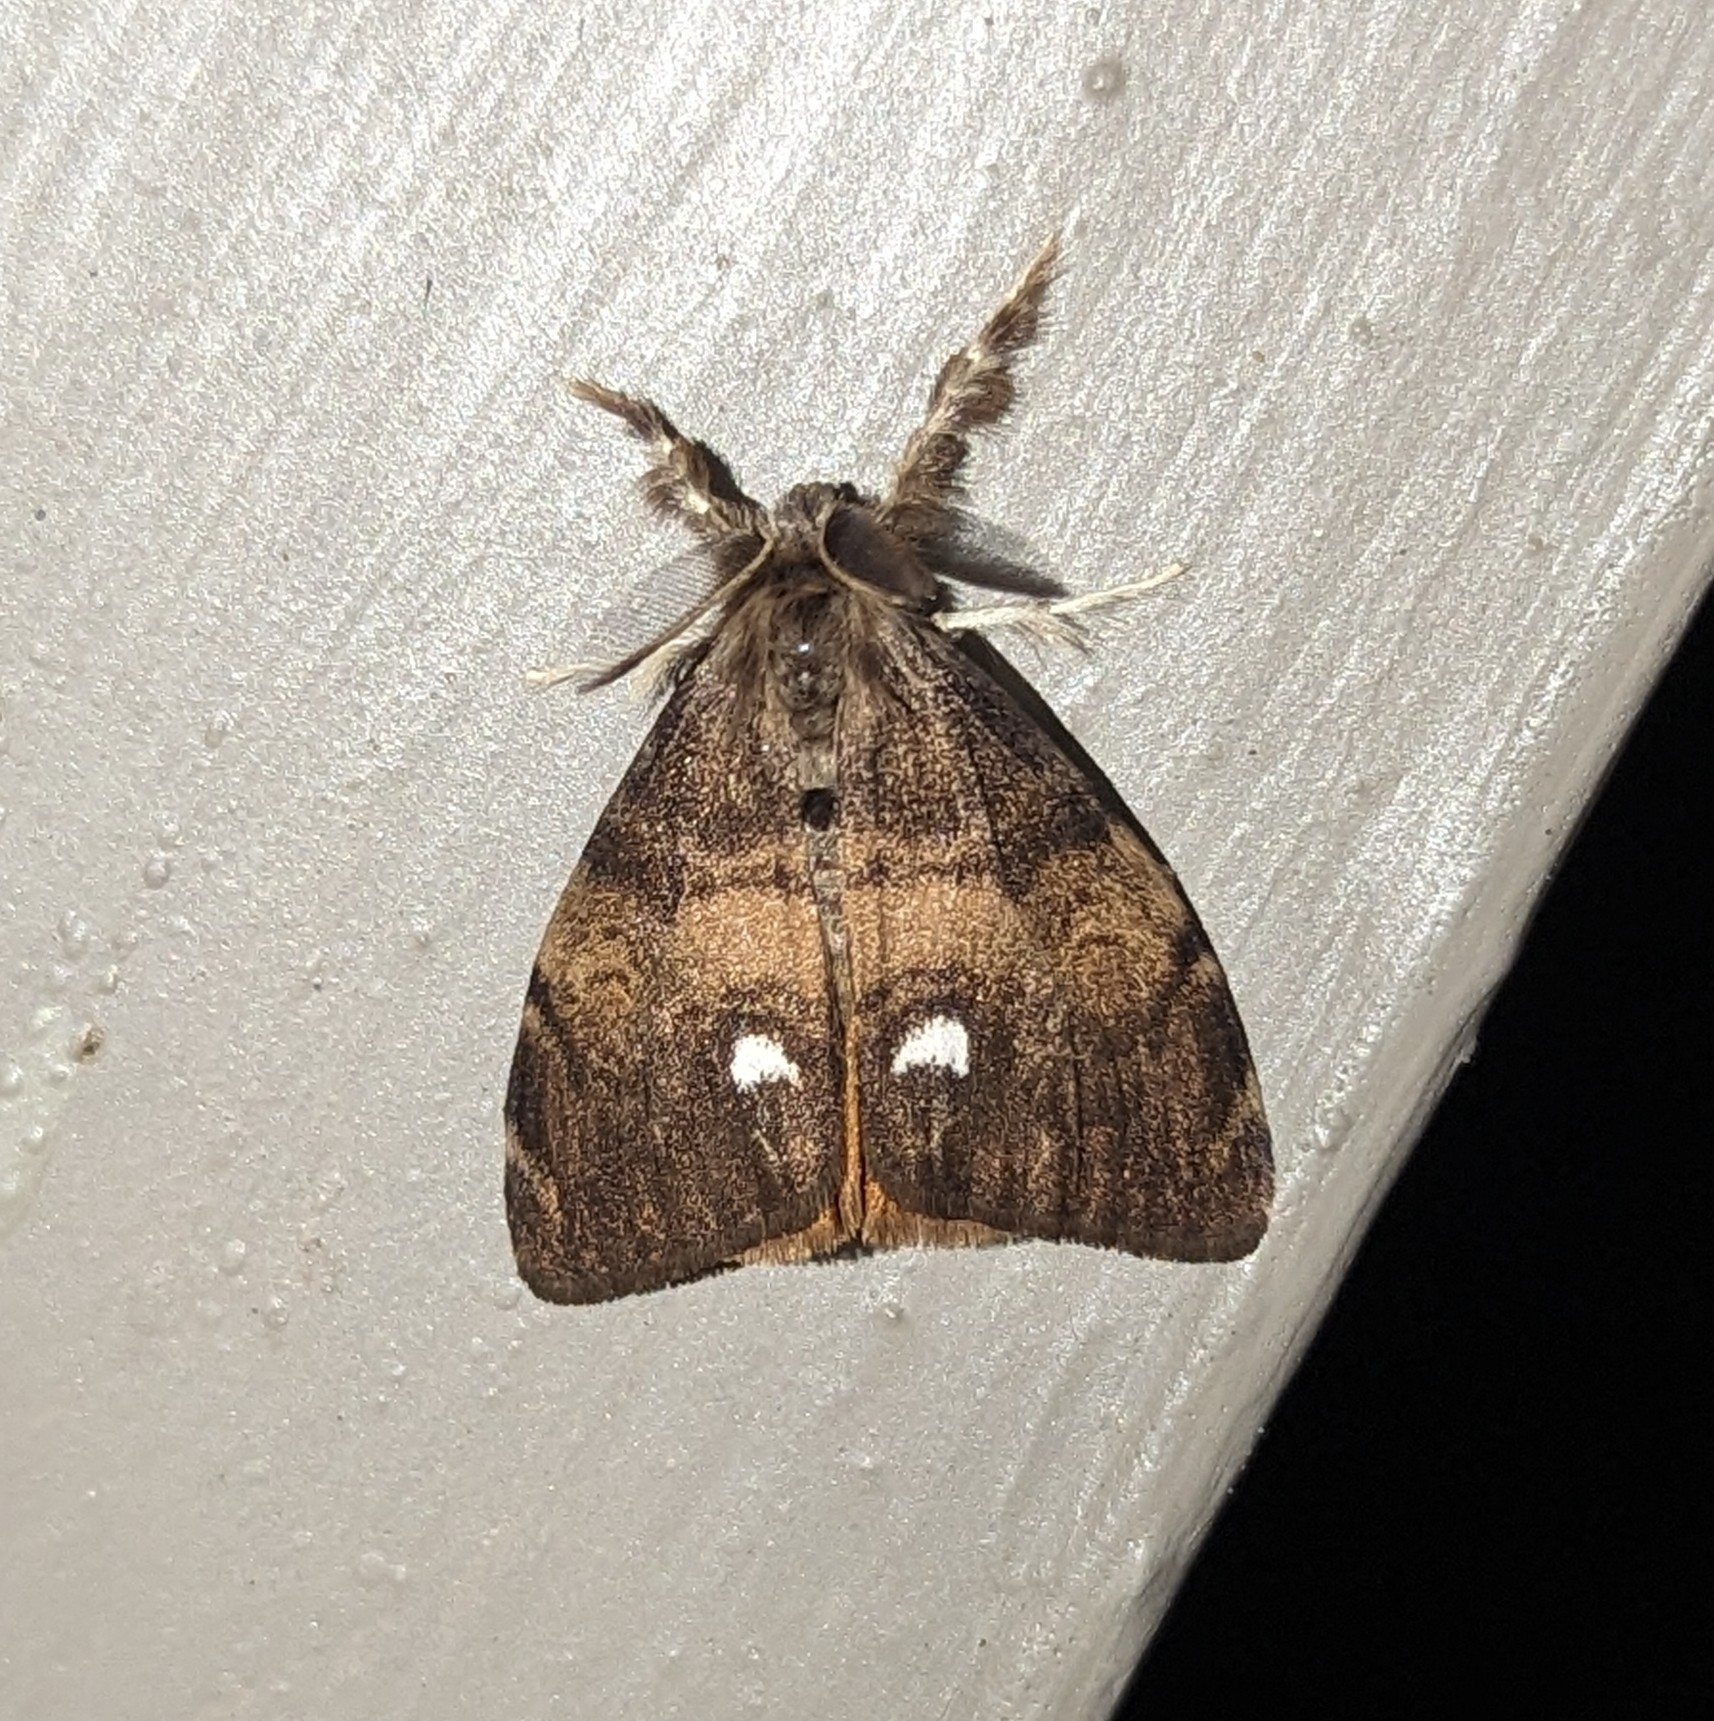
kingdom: Animalia
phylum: Arthropoda
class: Insecta
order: Lepidoptera
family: Erebidae
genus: Orgyia
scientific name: Orgyia antiqua
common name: Vapourer
